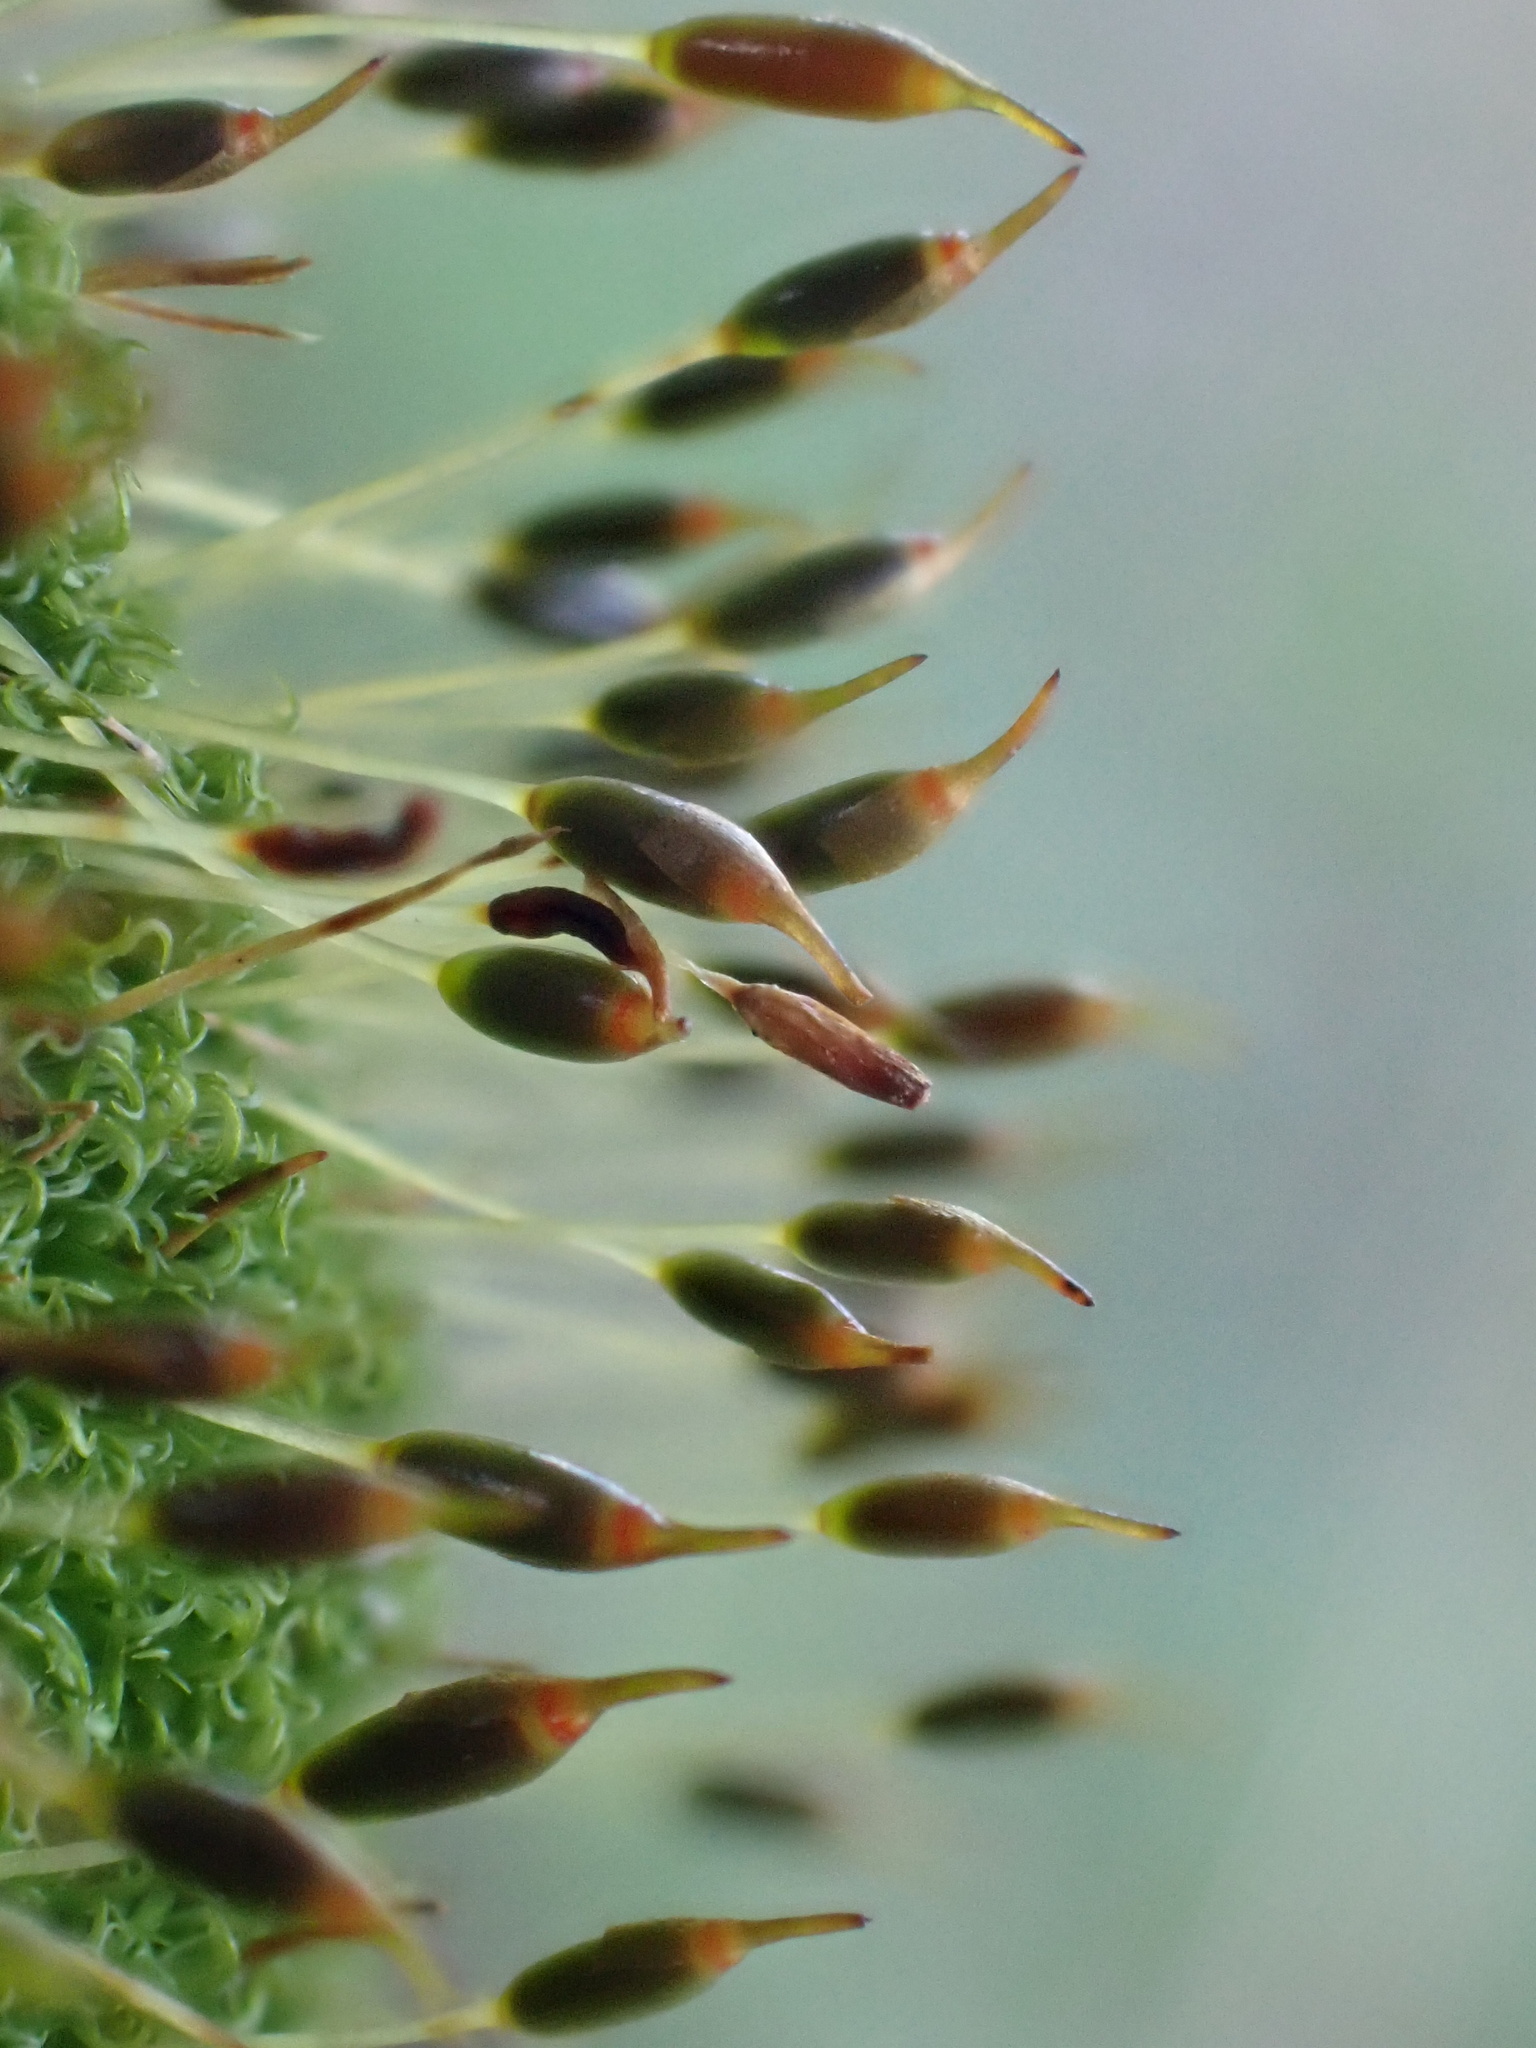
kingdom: Plantae
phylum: Bryophyta
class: Bryopsida
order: Dicranales
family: Rhabdoweisiaceae
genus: Dicranoweisia
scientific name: Dicranoweisia cirrata
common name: Common pincushion
